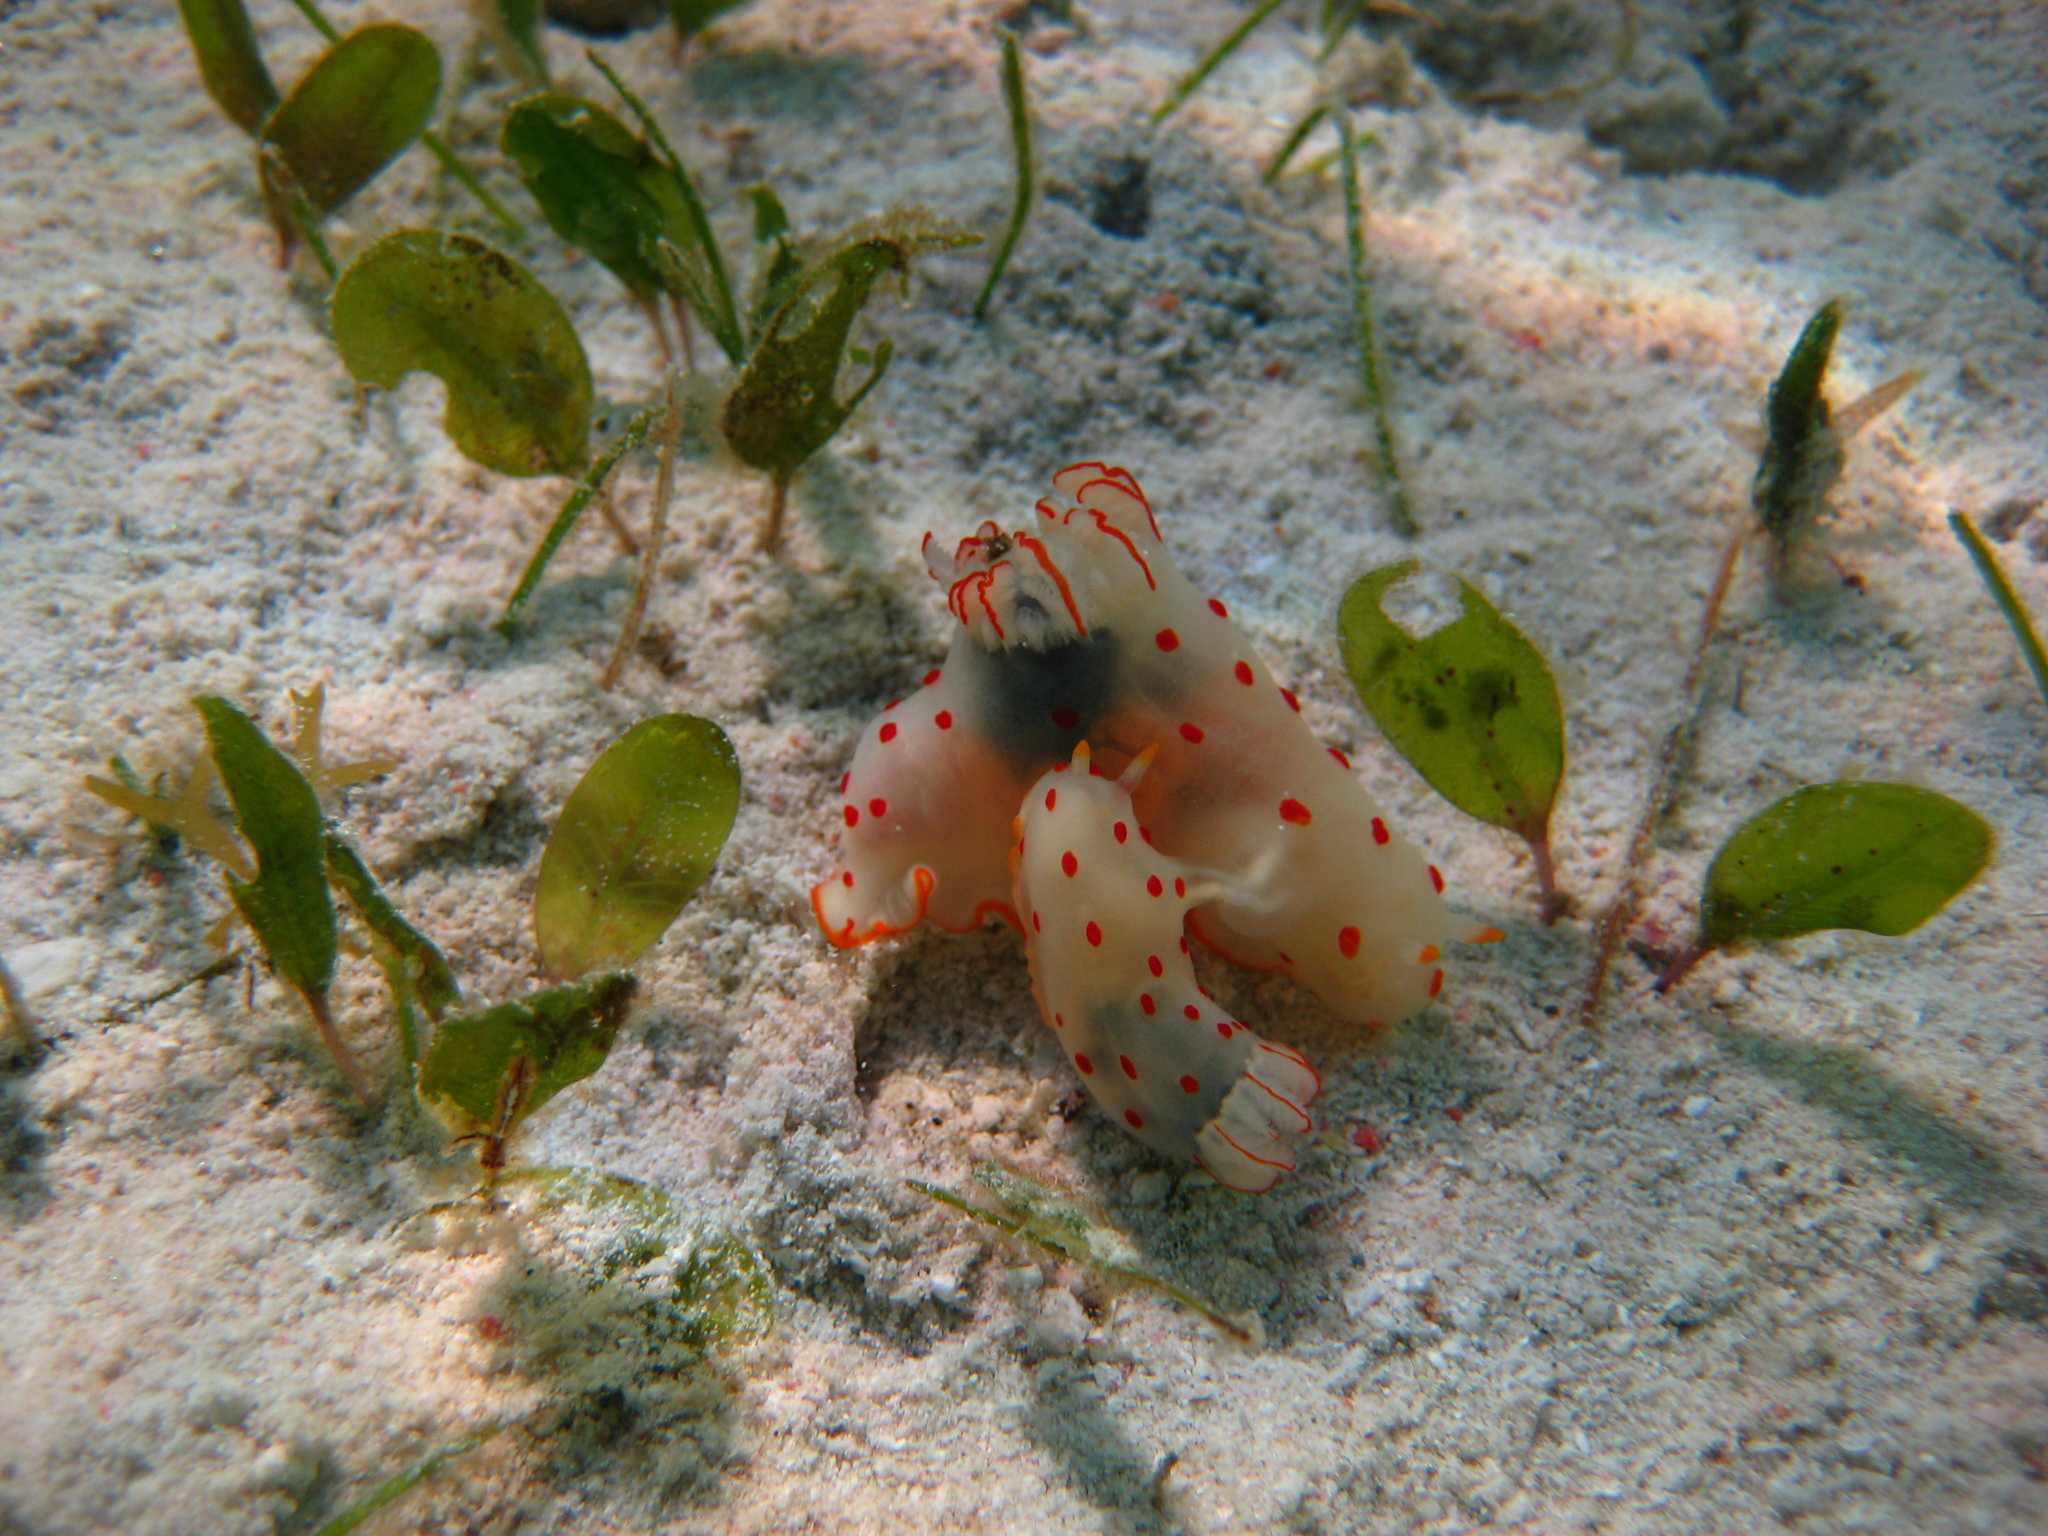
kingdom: Animalia
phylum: Mollusca
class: Gastropoda
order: Nudibranchia
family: Polyceridae
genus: Gymnodoris
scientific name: Gymnodoris ceylonica
